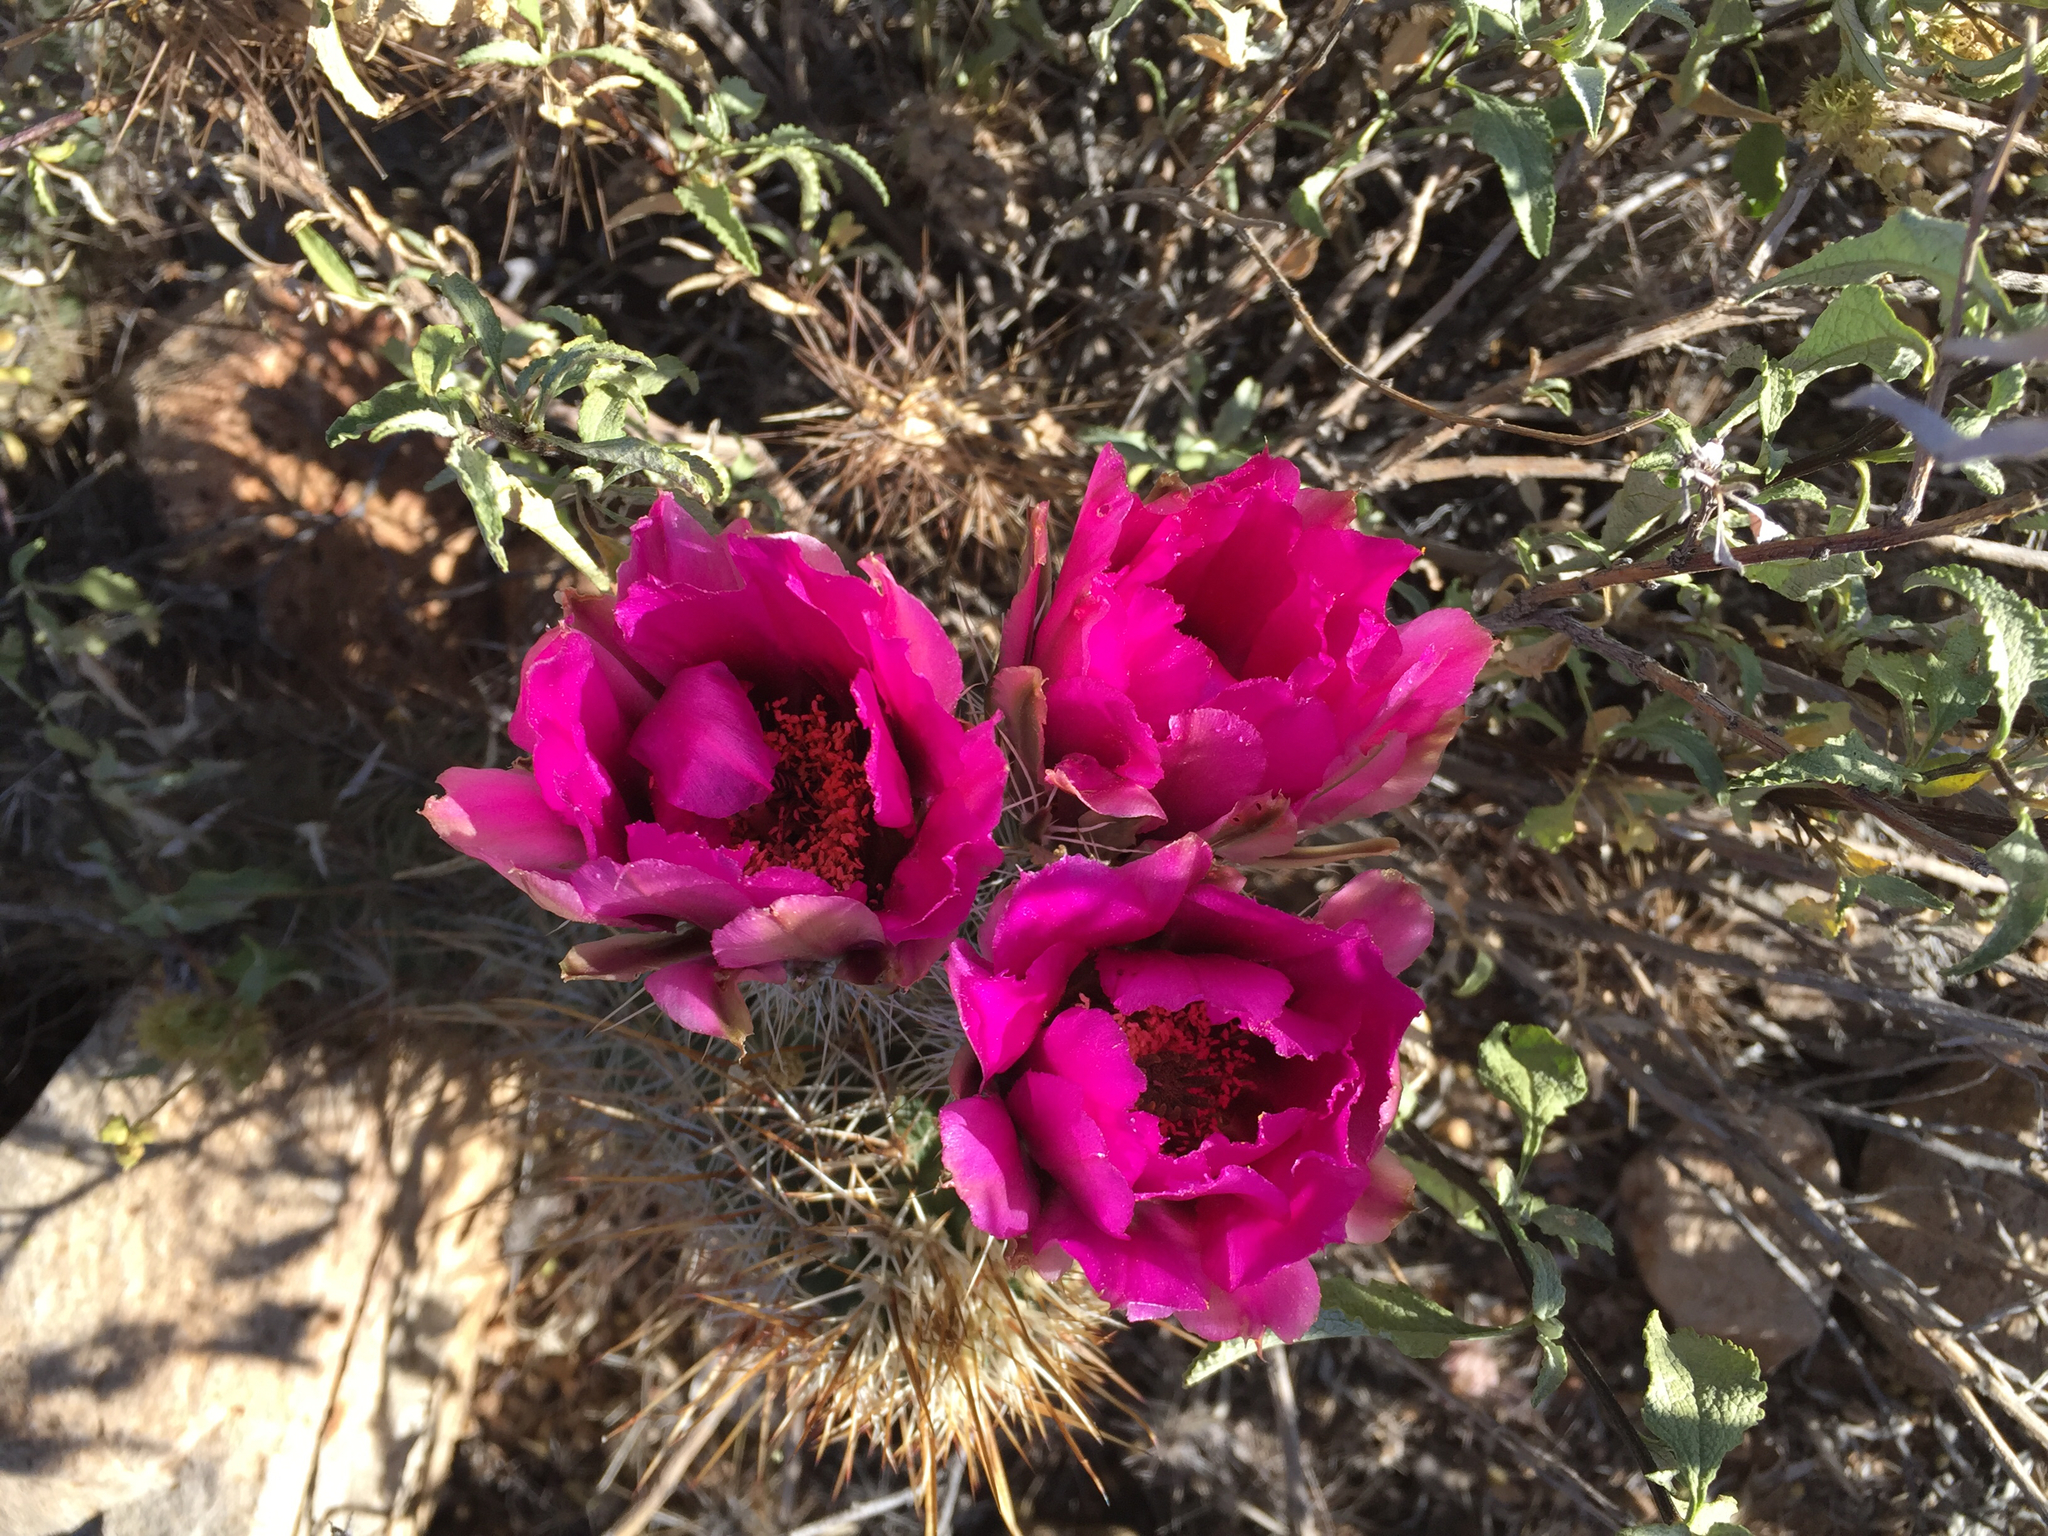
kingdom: Plantae
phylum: Tracheophyta
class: Magnoliopsida
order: Caryophyllales
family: Cactaceae
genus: Echinocereus
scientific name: Echinocereus fasciculatus
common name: Bundle hedgehog
